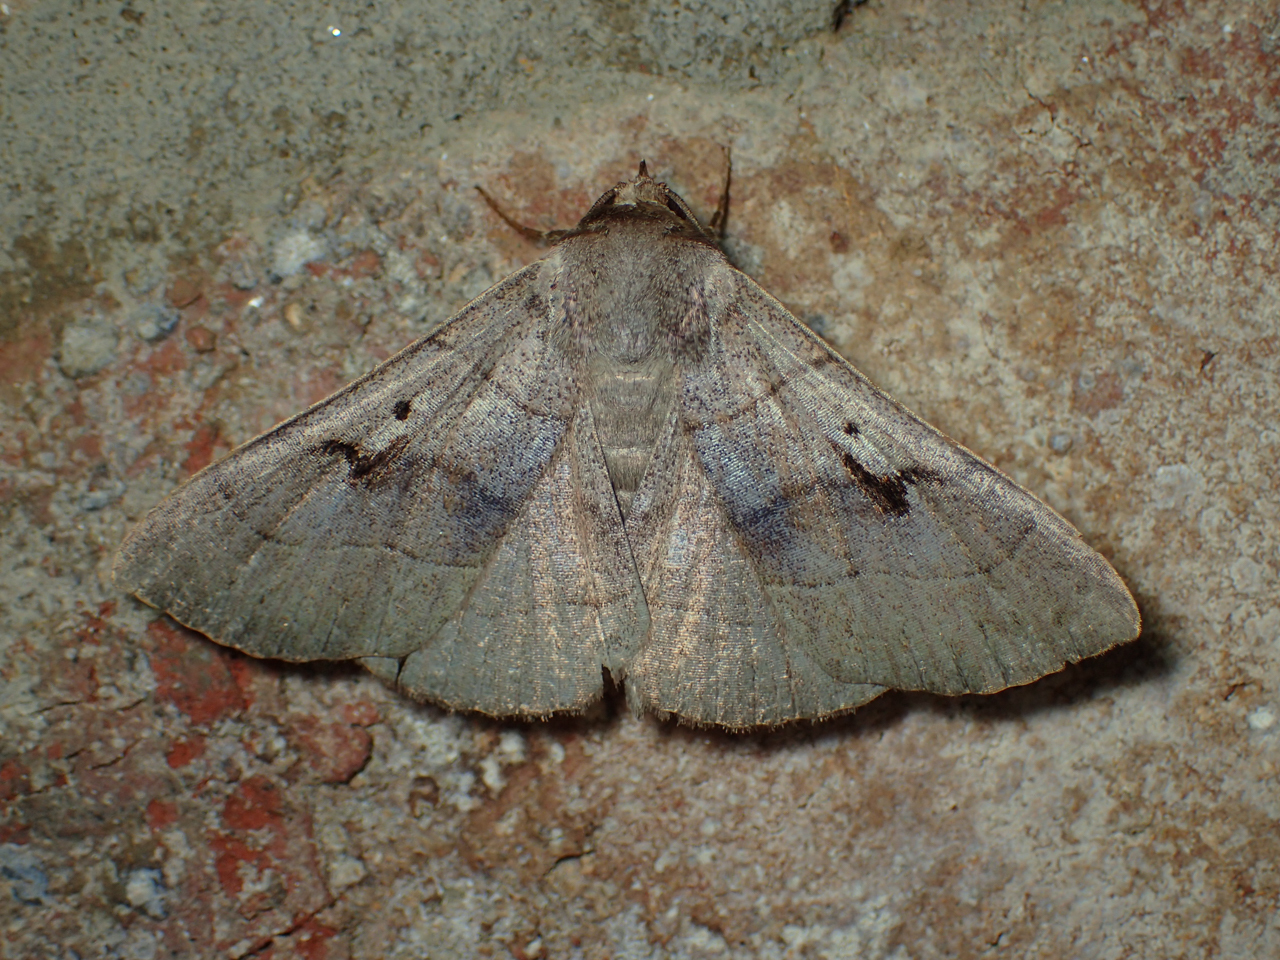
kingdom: Animalia
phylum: Arthropoda
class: Insecta
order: Lepidoptera
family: Erebidae
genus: Panopoda
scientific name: Panopoda carneicosta
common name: Brown panopoda moth
